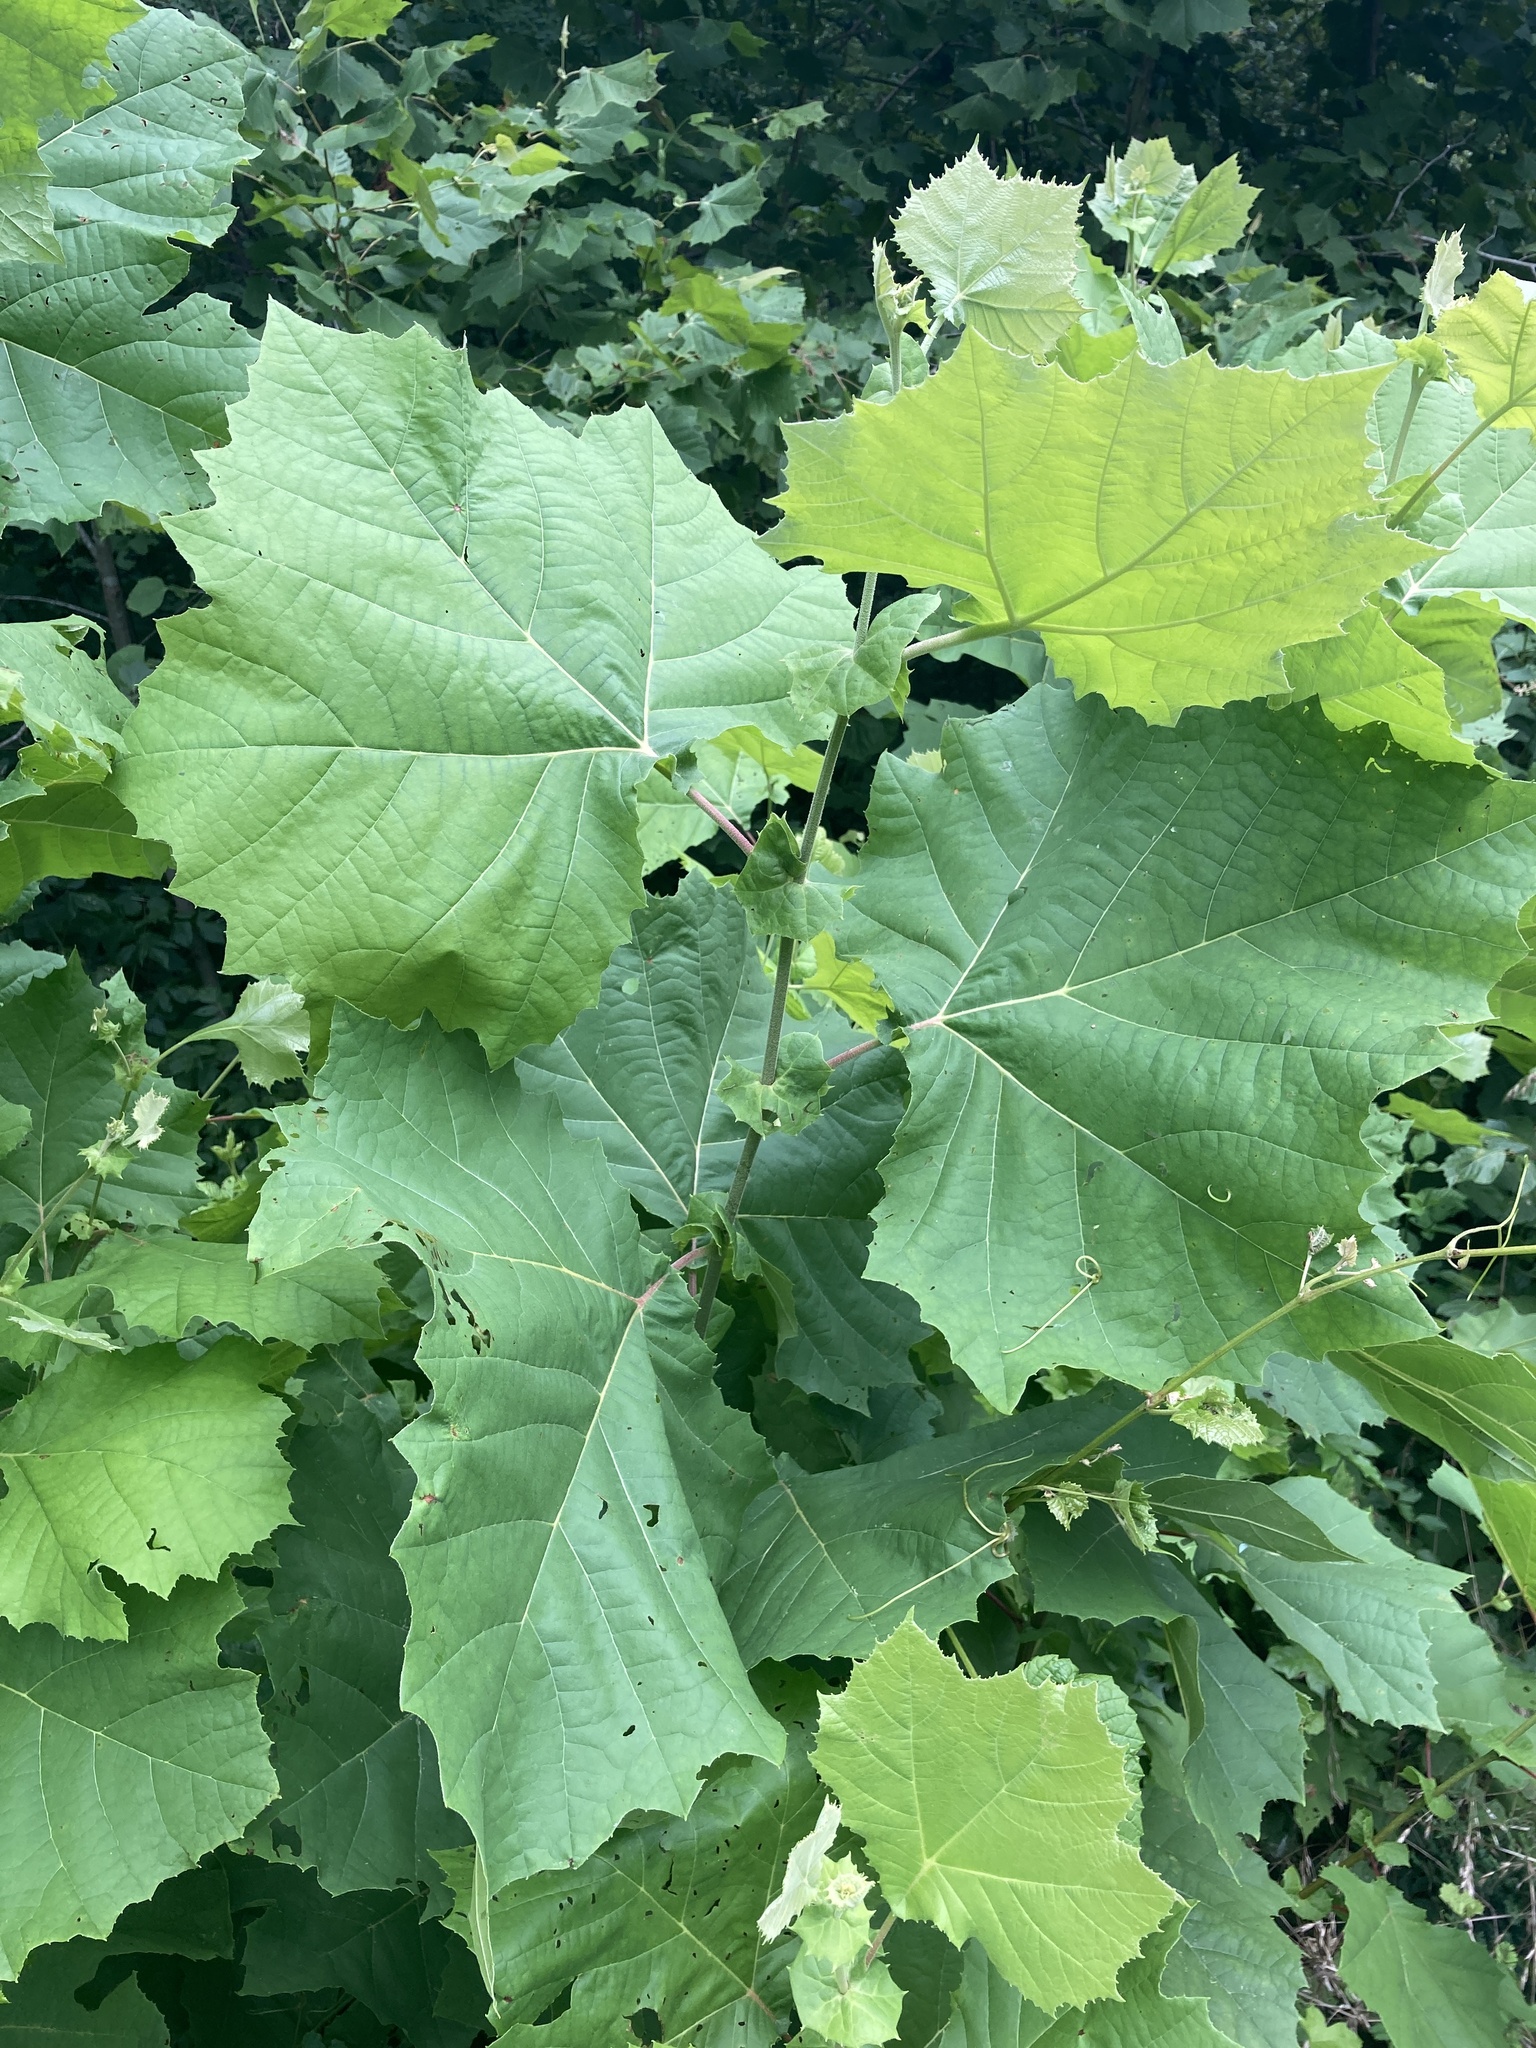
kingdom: Plantae
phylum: Tracheophyta
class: Magnoliopsida
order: Proteales
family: Platanaceae
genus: Platanus
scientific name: Platanus occidentalis
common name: American sycamore
